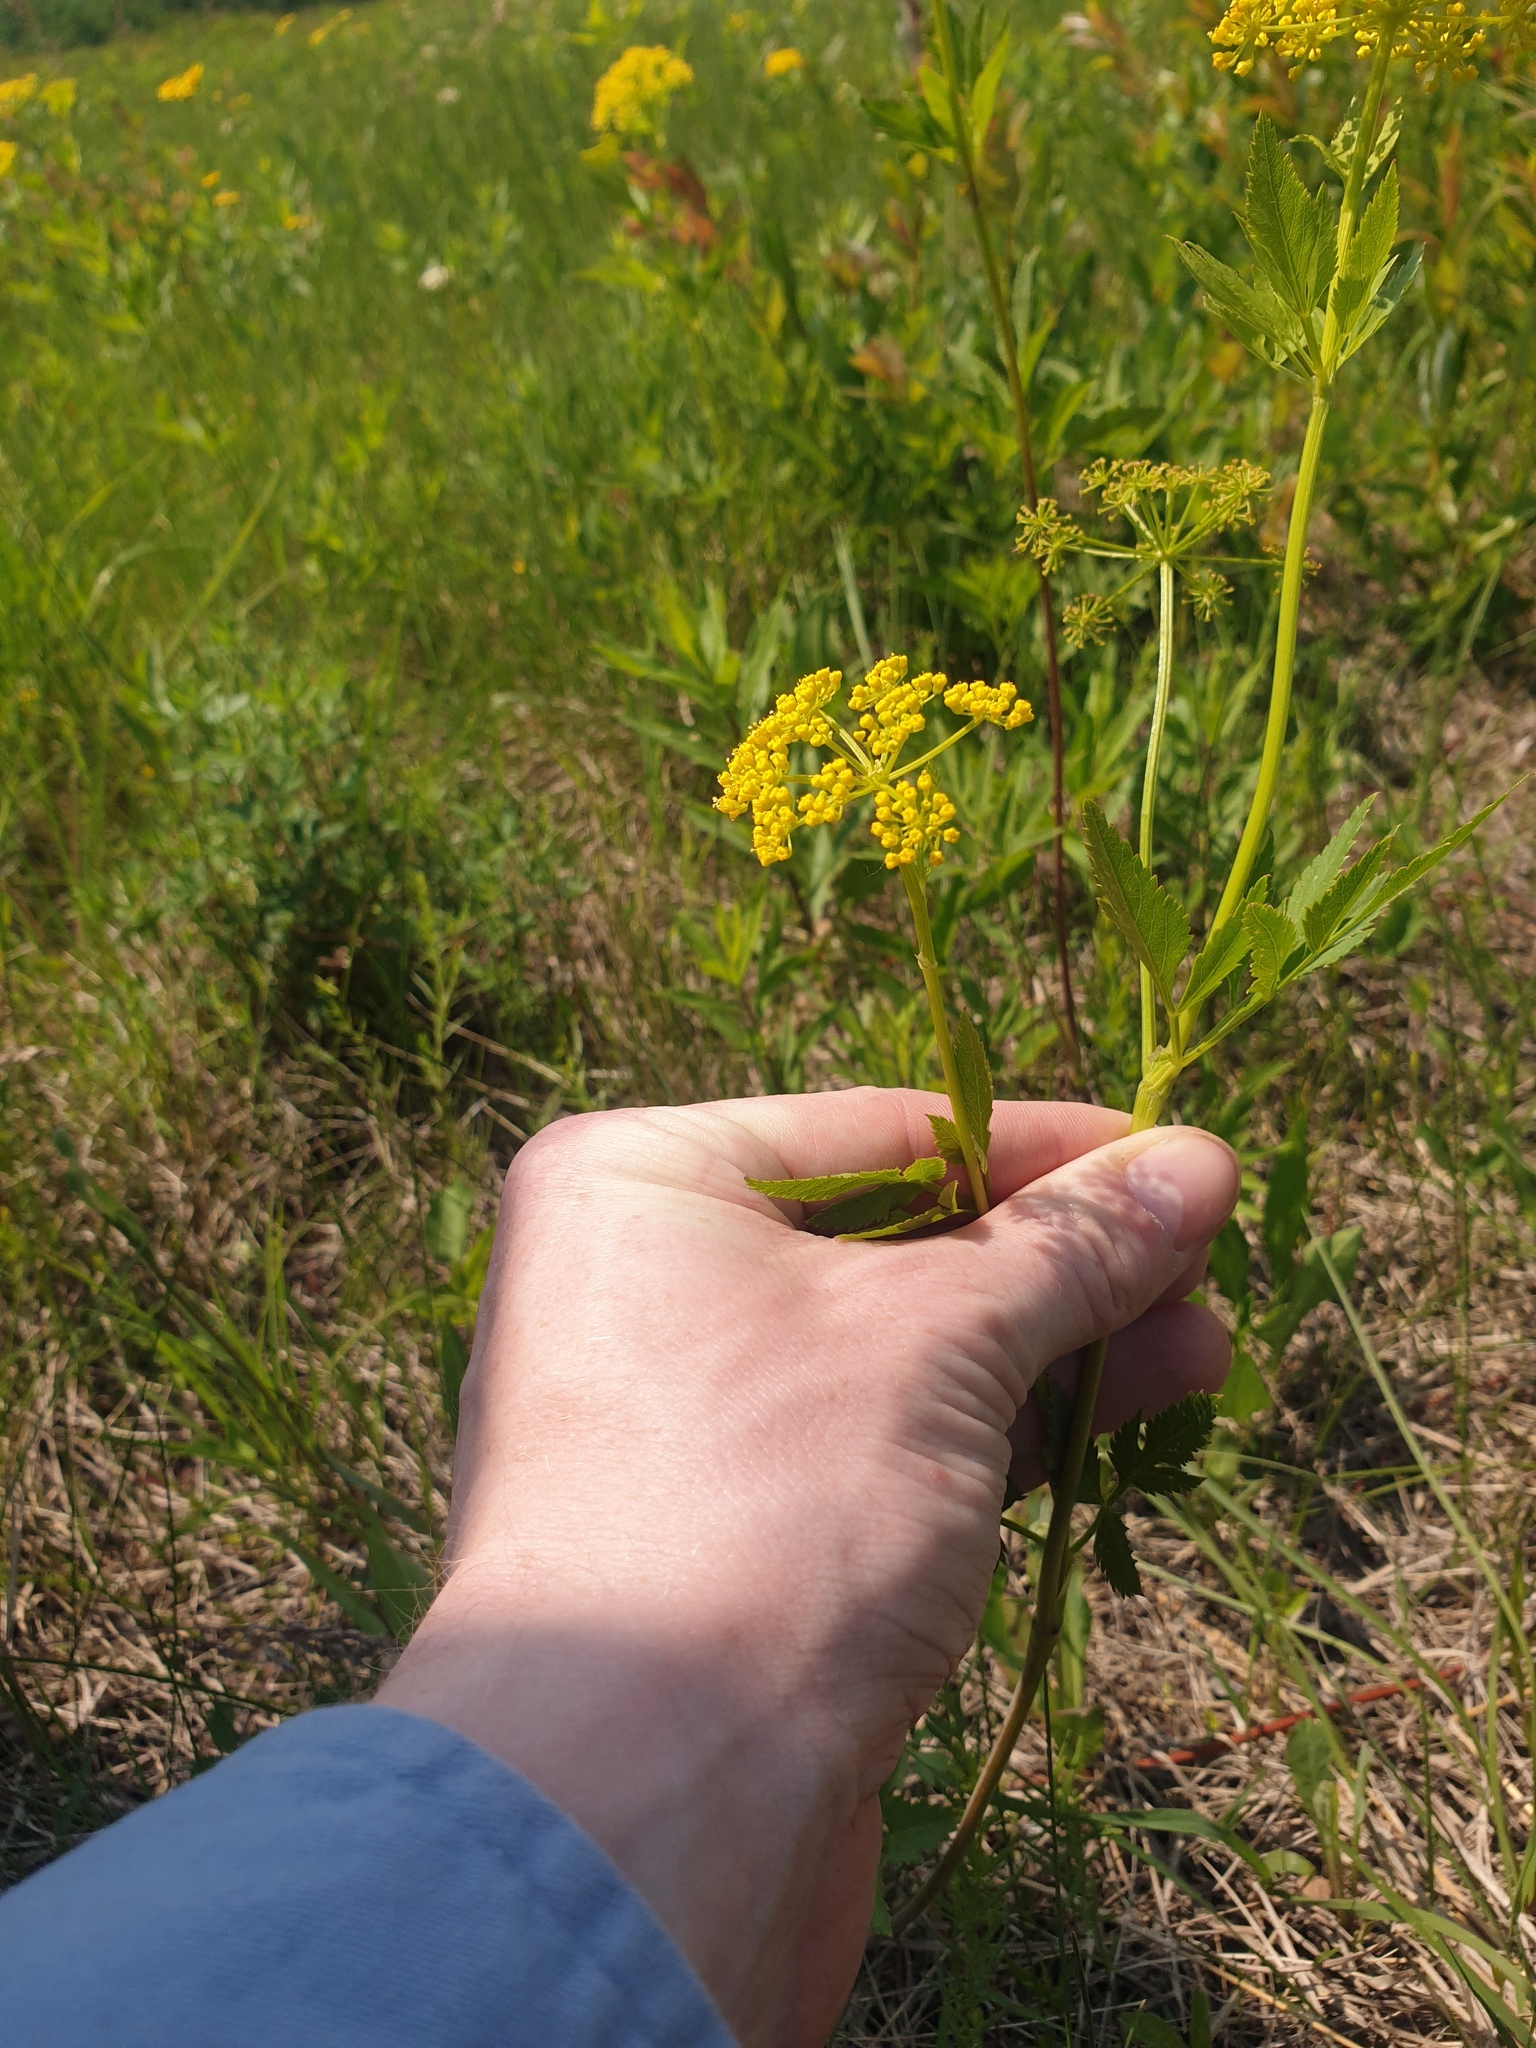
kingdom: Plantae
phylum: Tracheophyta
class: Magnoliopsida
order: Apiales
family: Apiaceae
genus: Zizia
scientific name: Zizia aurea
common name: Golden alexanders
